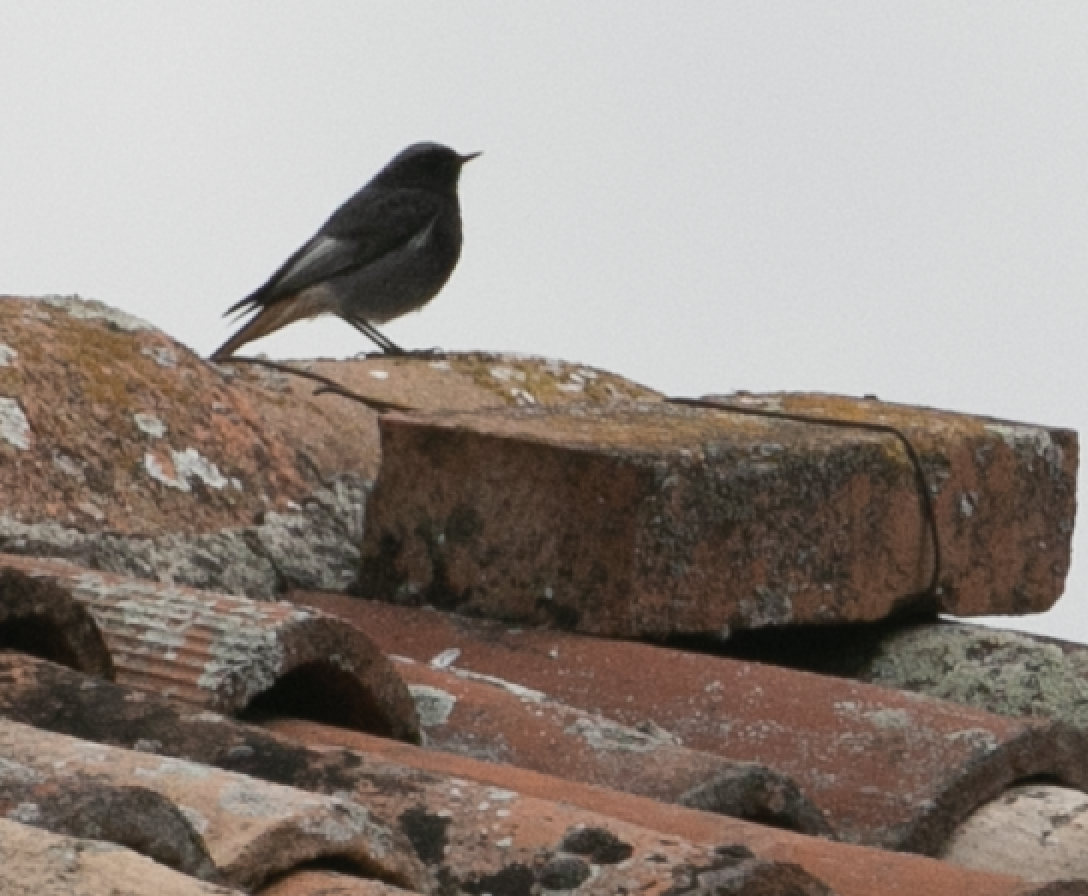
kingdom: Animalia
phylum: Chordata
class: Aves
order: Passeriformes
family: Muscicapidae
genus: Phoenicurus
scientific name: Phoenicurus ochruros
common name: Black redstart
